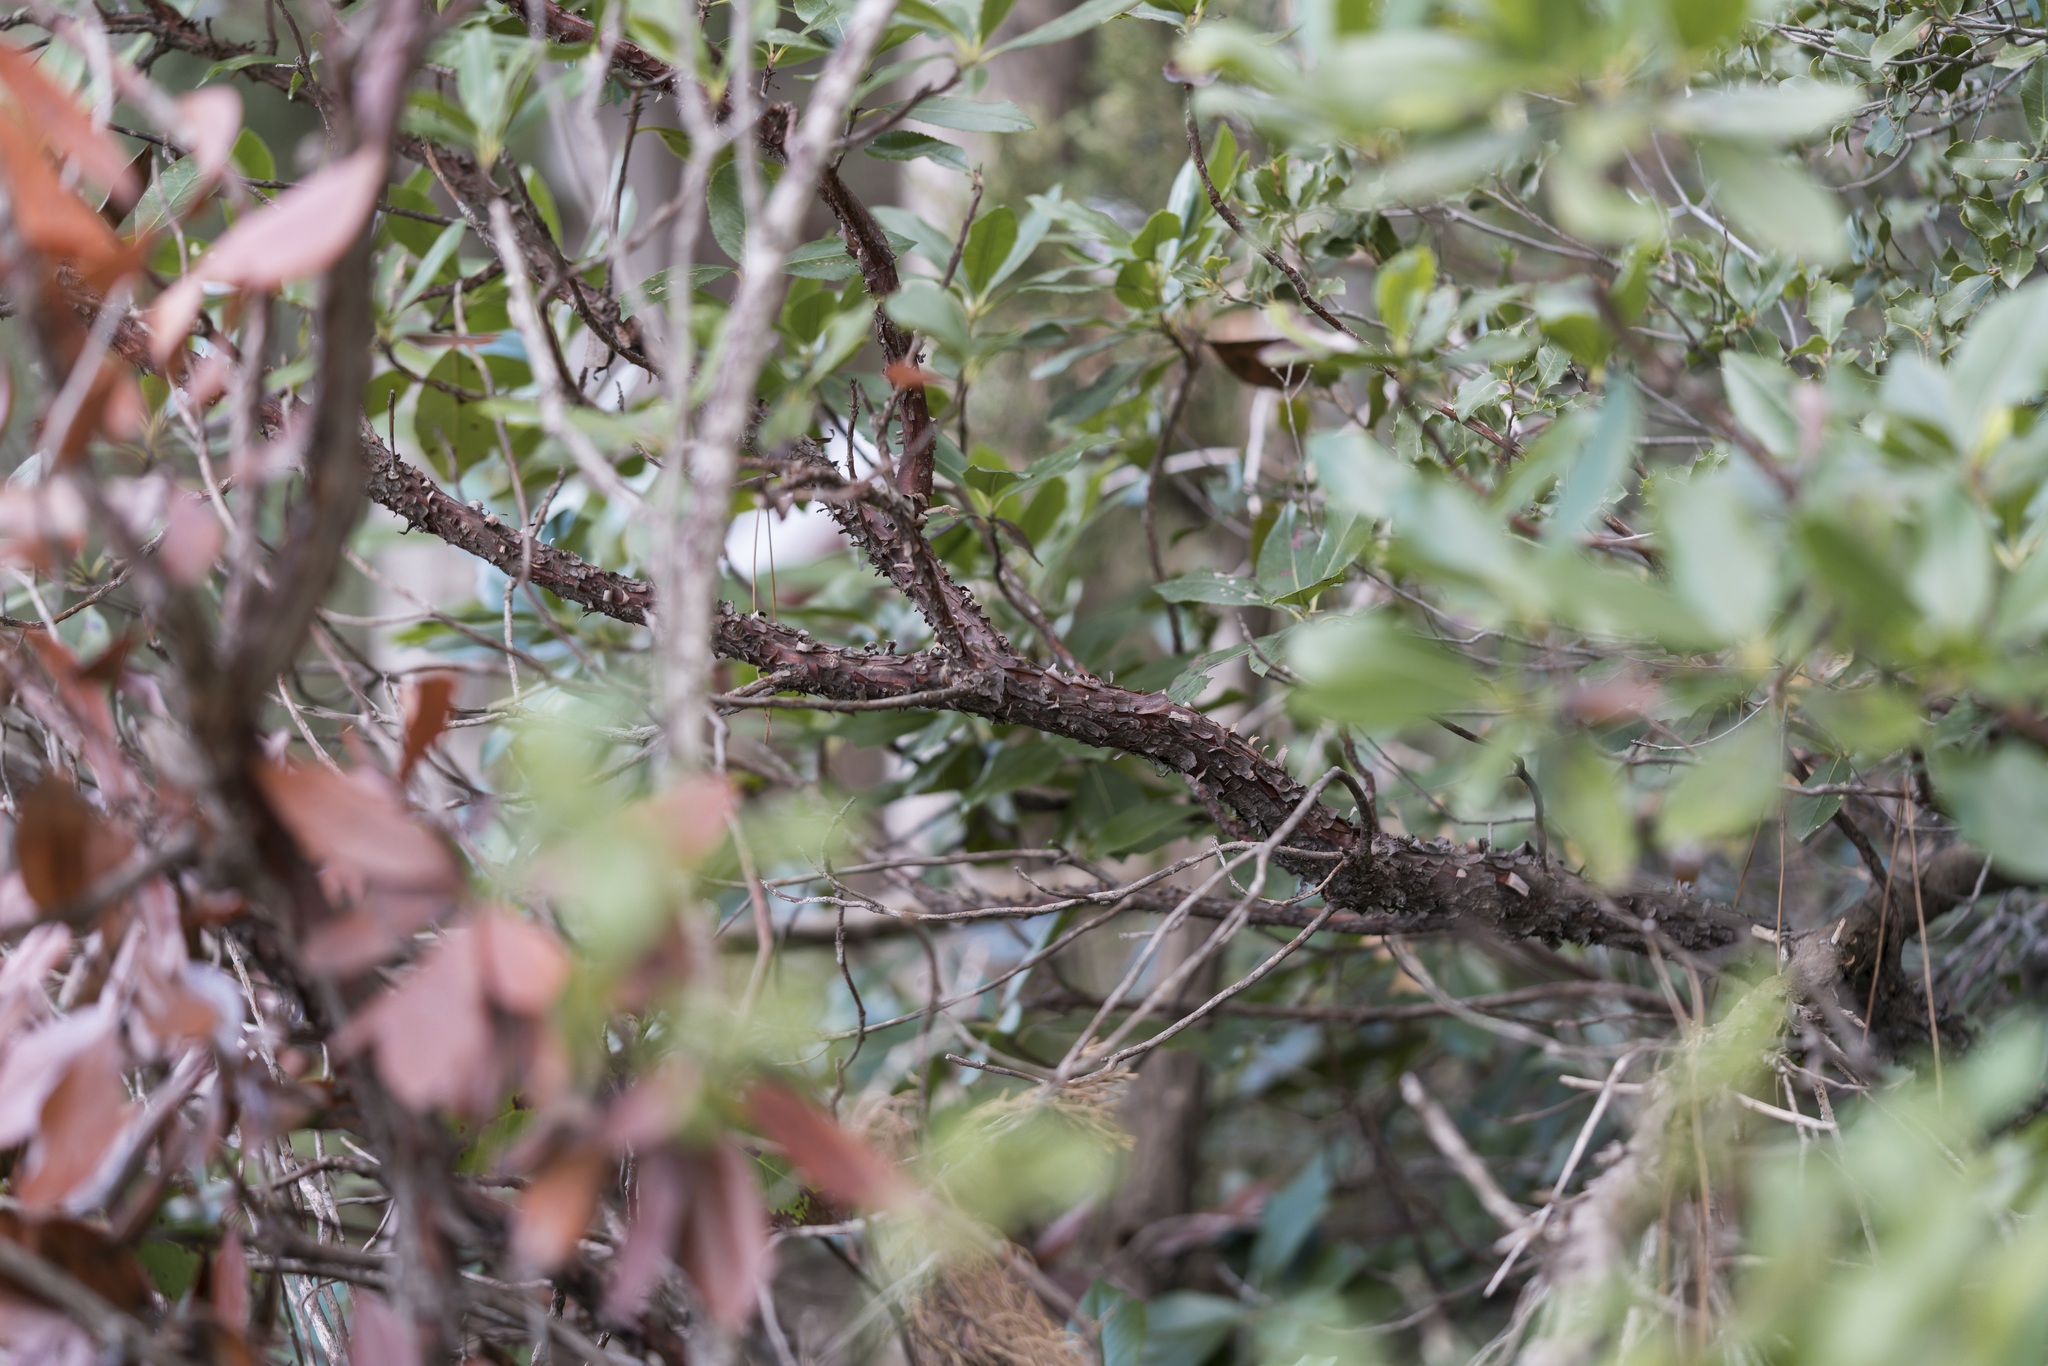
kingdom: Plantae
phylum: Tracheophyta
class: Magnoliopsida
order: Ericales
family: Ericaceae
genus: Arbutus
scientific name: Arbutus unedo
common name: Strawberry-tree
